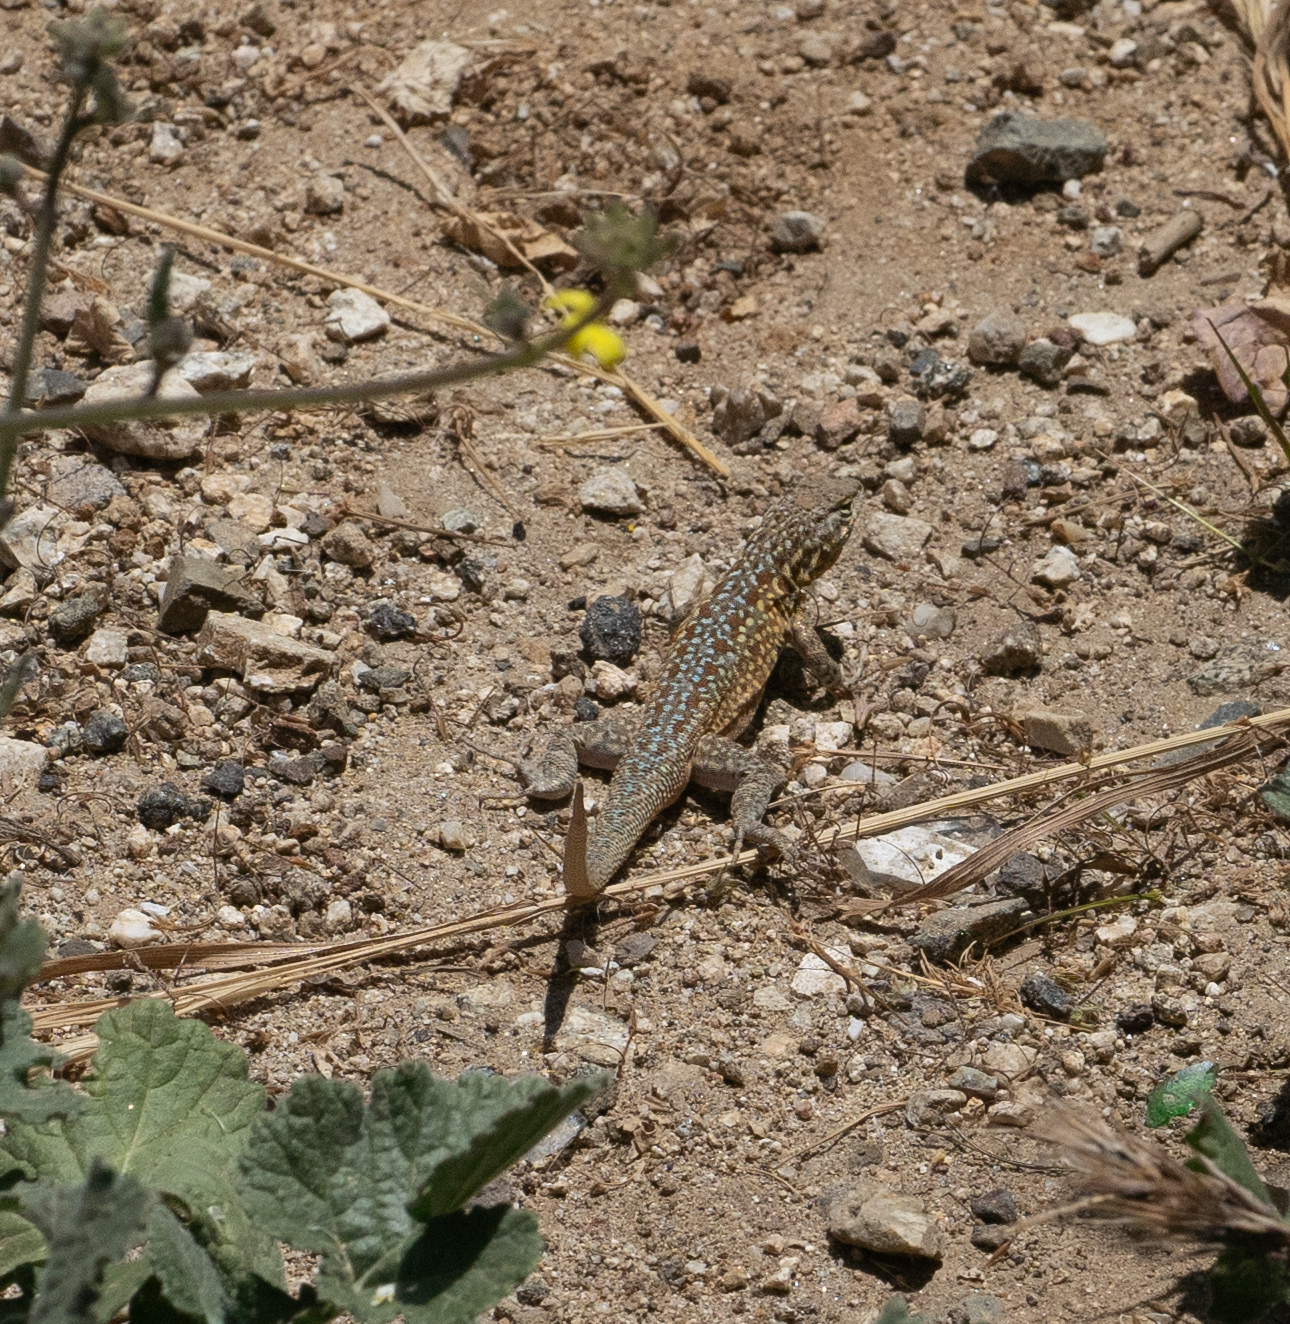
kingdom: Animalia
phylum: Chordata
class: Squamata
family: Phrynosomatidae
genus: Uta
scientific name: Uta stansburiana
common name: Side-blotched lizard
